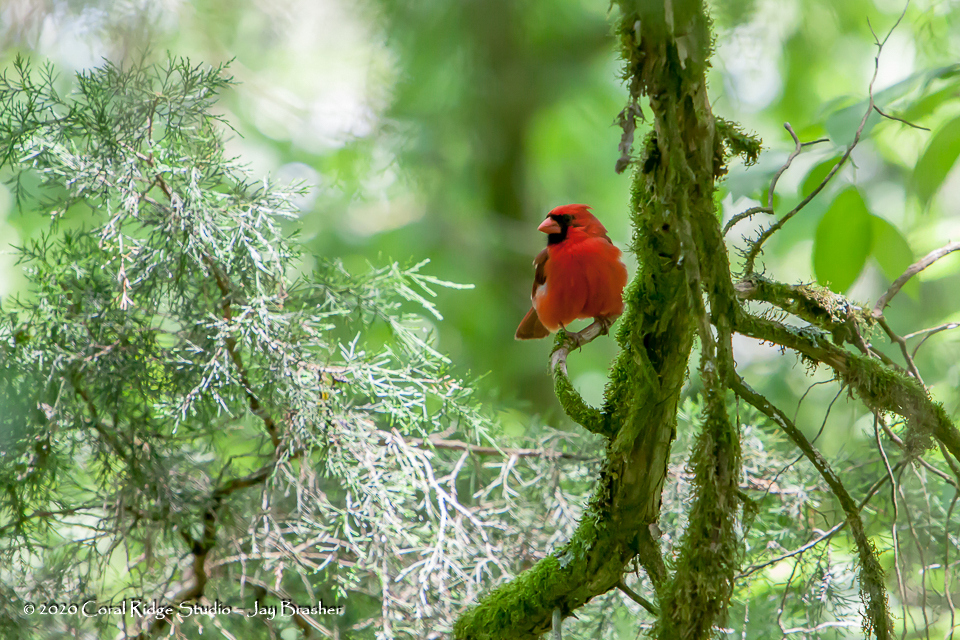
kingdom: Animalia
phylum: Chordata
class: Aves
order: Passeriformes
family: Cardinalidae
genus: Cardinalis
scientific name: Cardinalis cardinalis
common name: Northern cardinal
